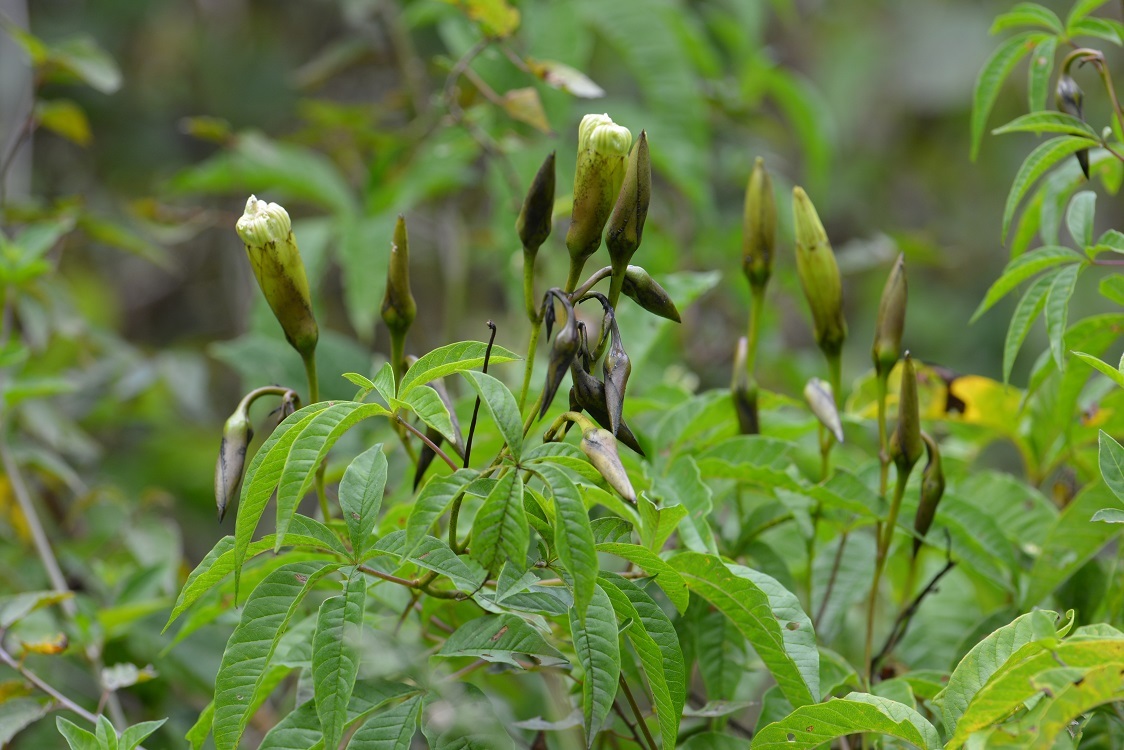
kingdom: Plantae
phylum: Tracheophyta
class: Magnoliopsida
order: Solanales
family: Convolvulaceae
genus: Operculina
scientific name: Operculina platyphylla
